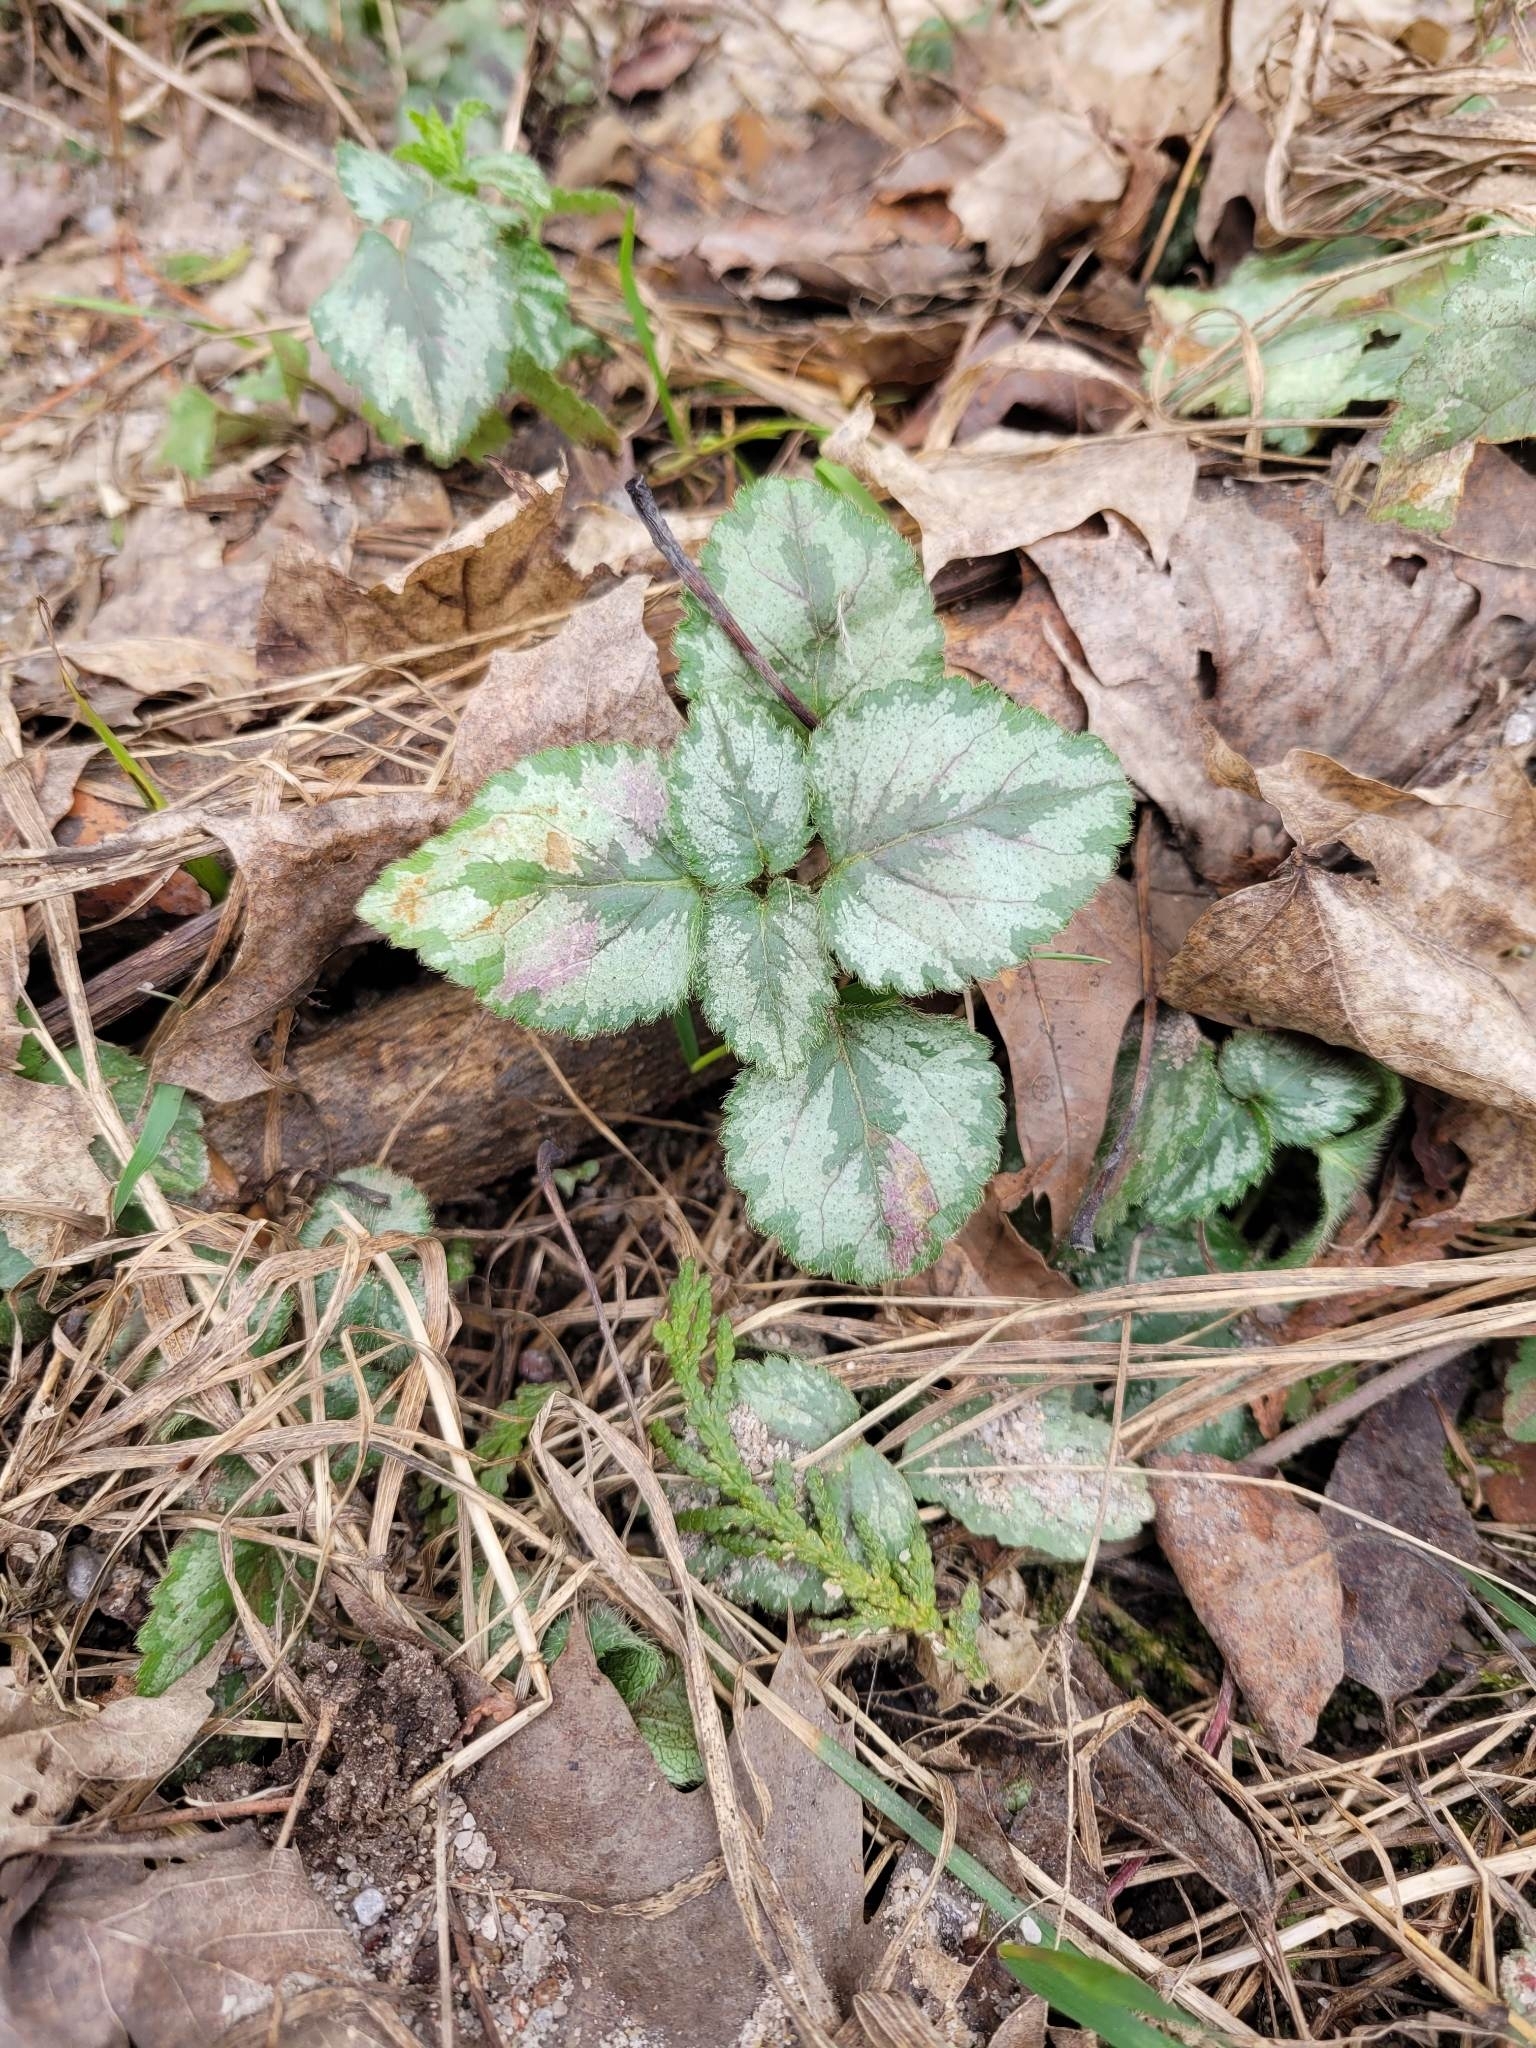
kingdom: Plantae
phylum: Tracheophyta
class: Magnoliopsida
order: Lamiales
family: Lamiaceae
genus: Lamium
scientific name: Lamium galeobdolon
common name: Yellow archangel
